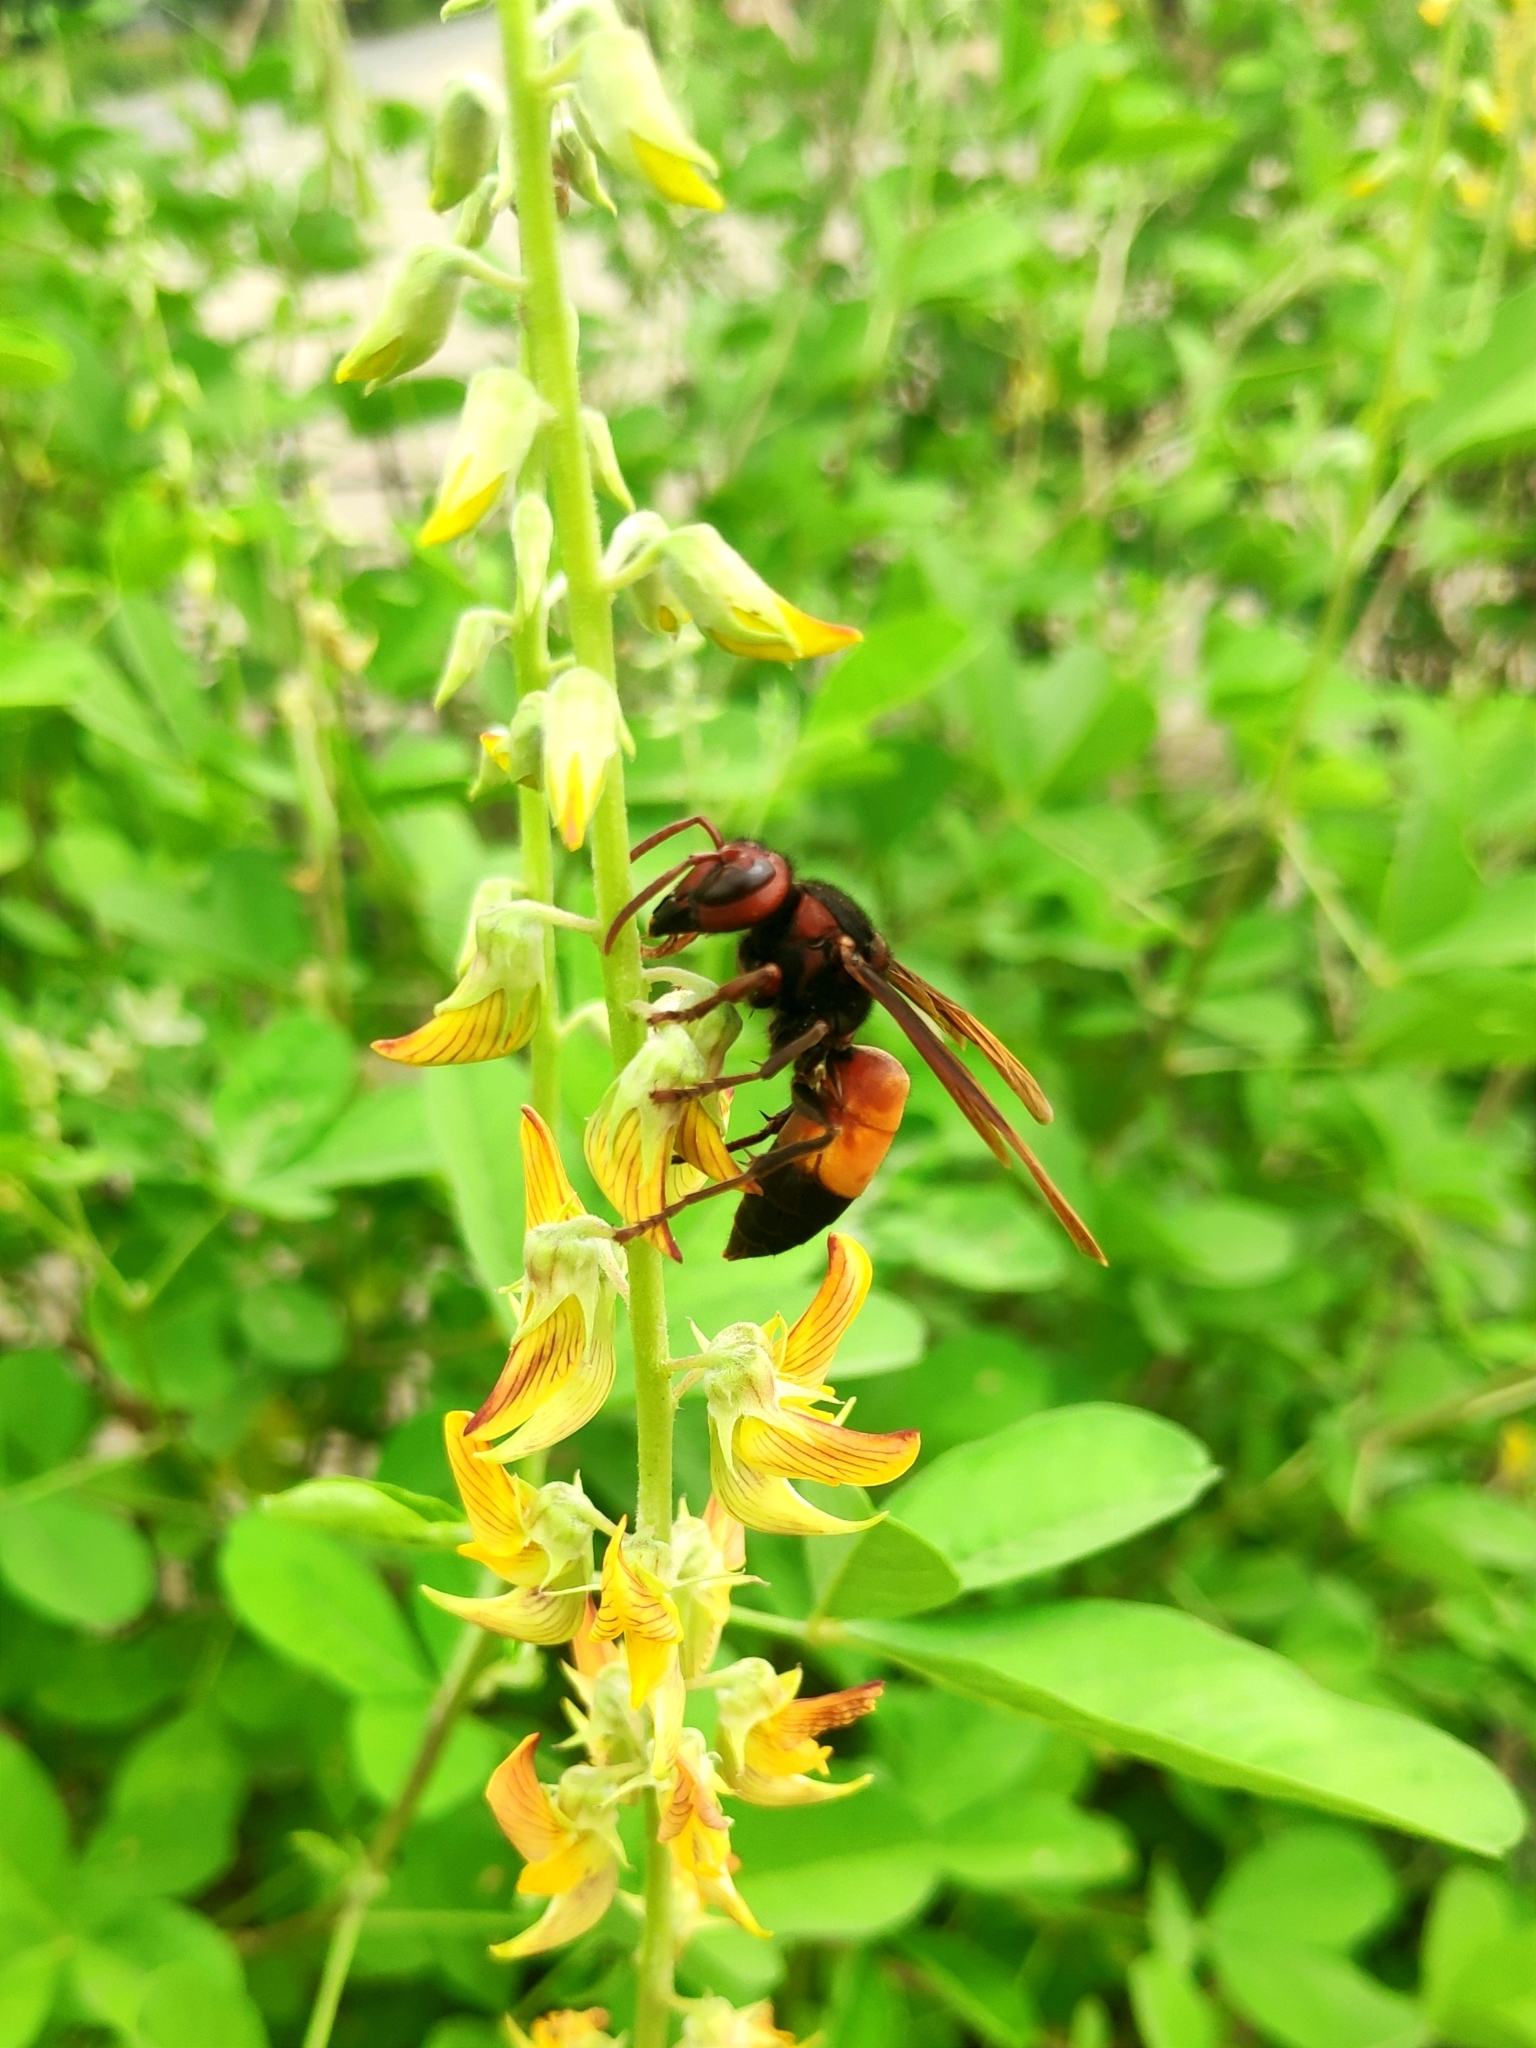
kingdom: Animalia
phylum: Arthropoda
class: Insecta
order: Hymenoptera
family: Vespidae
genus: Vespa
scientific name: Vespa affinis
